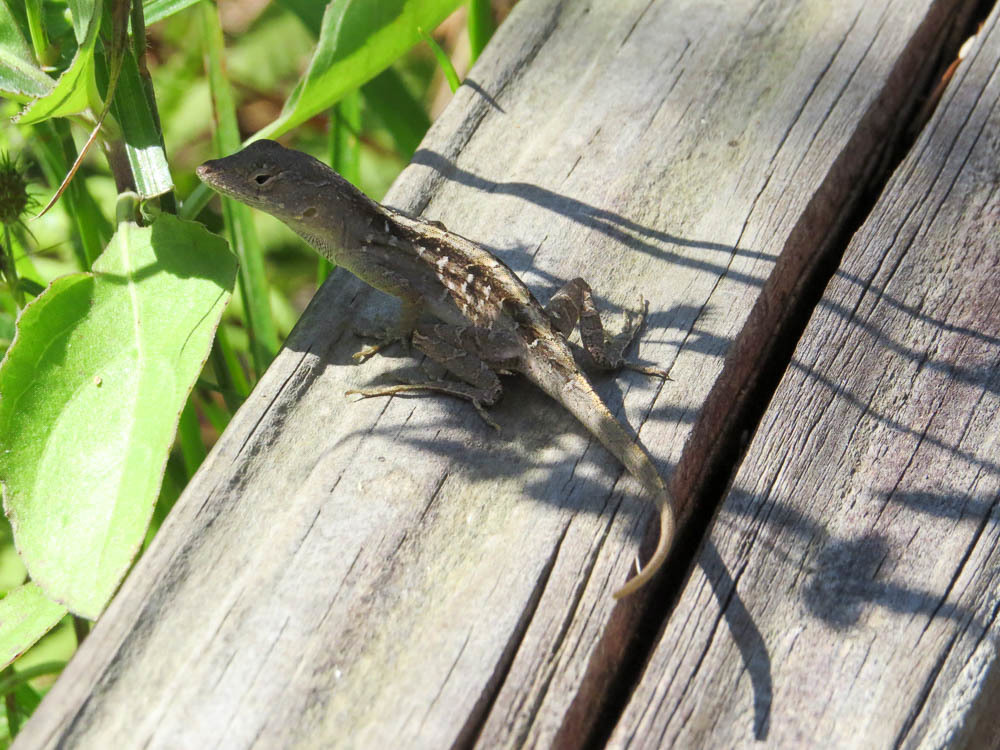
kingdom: Animalia
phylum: Chordata
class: Squamata
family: Dactyloidae
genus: Anolis
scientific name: Anolis sagrei
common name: Brown anole
